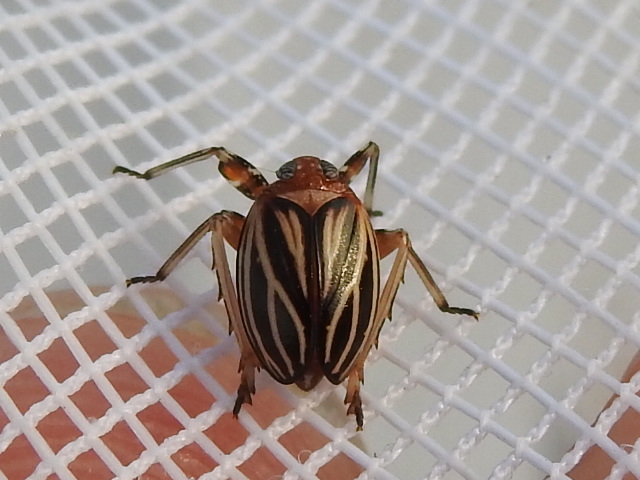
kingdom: Animalia
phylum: Arthropoda
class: Insecta
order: Hemiptera
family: Achilidae
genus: Isodaemon
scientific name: Isodaemon orontes
